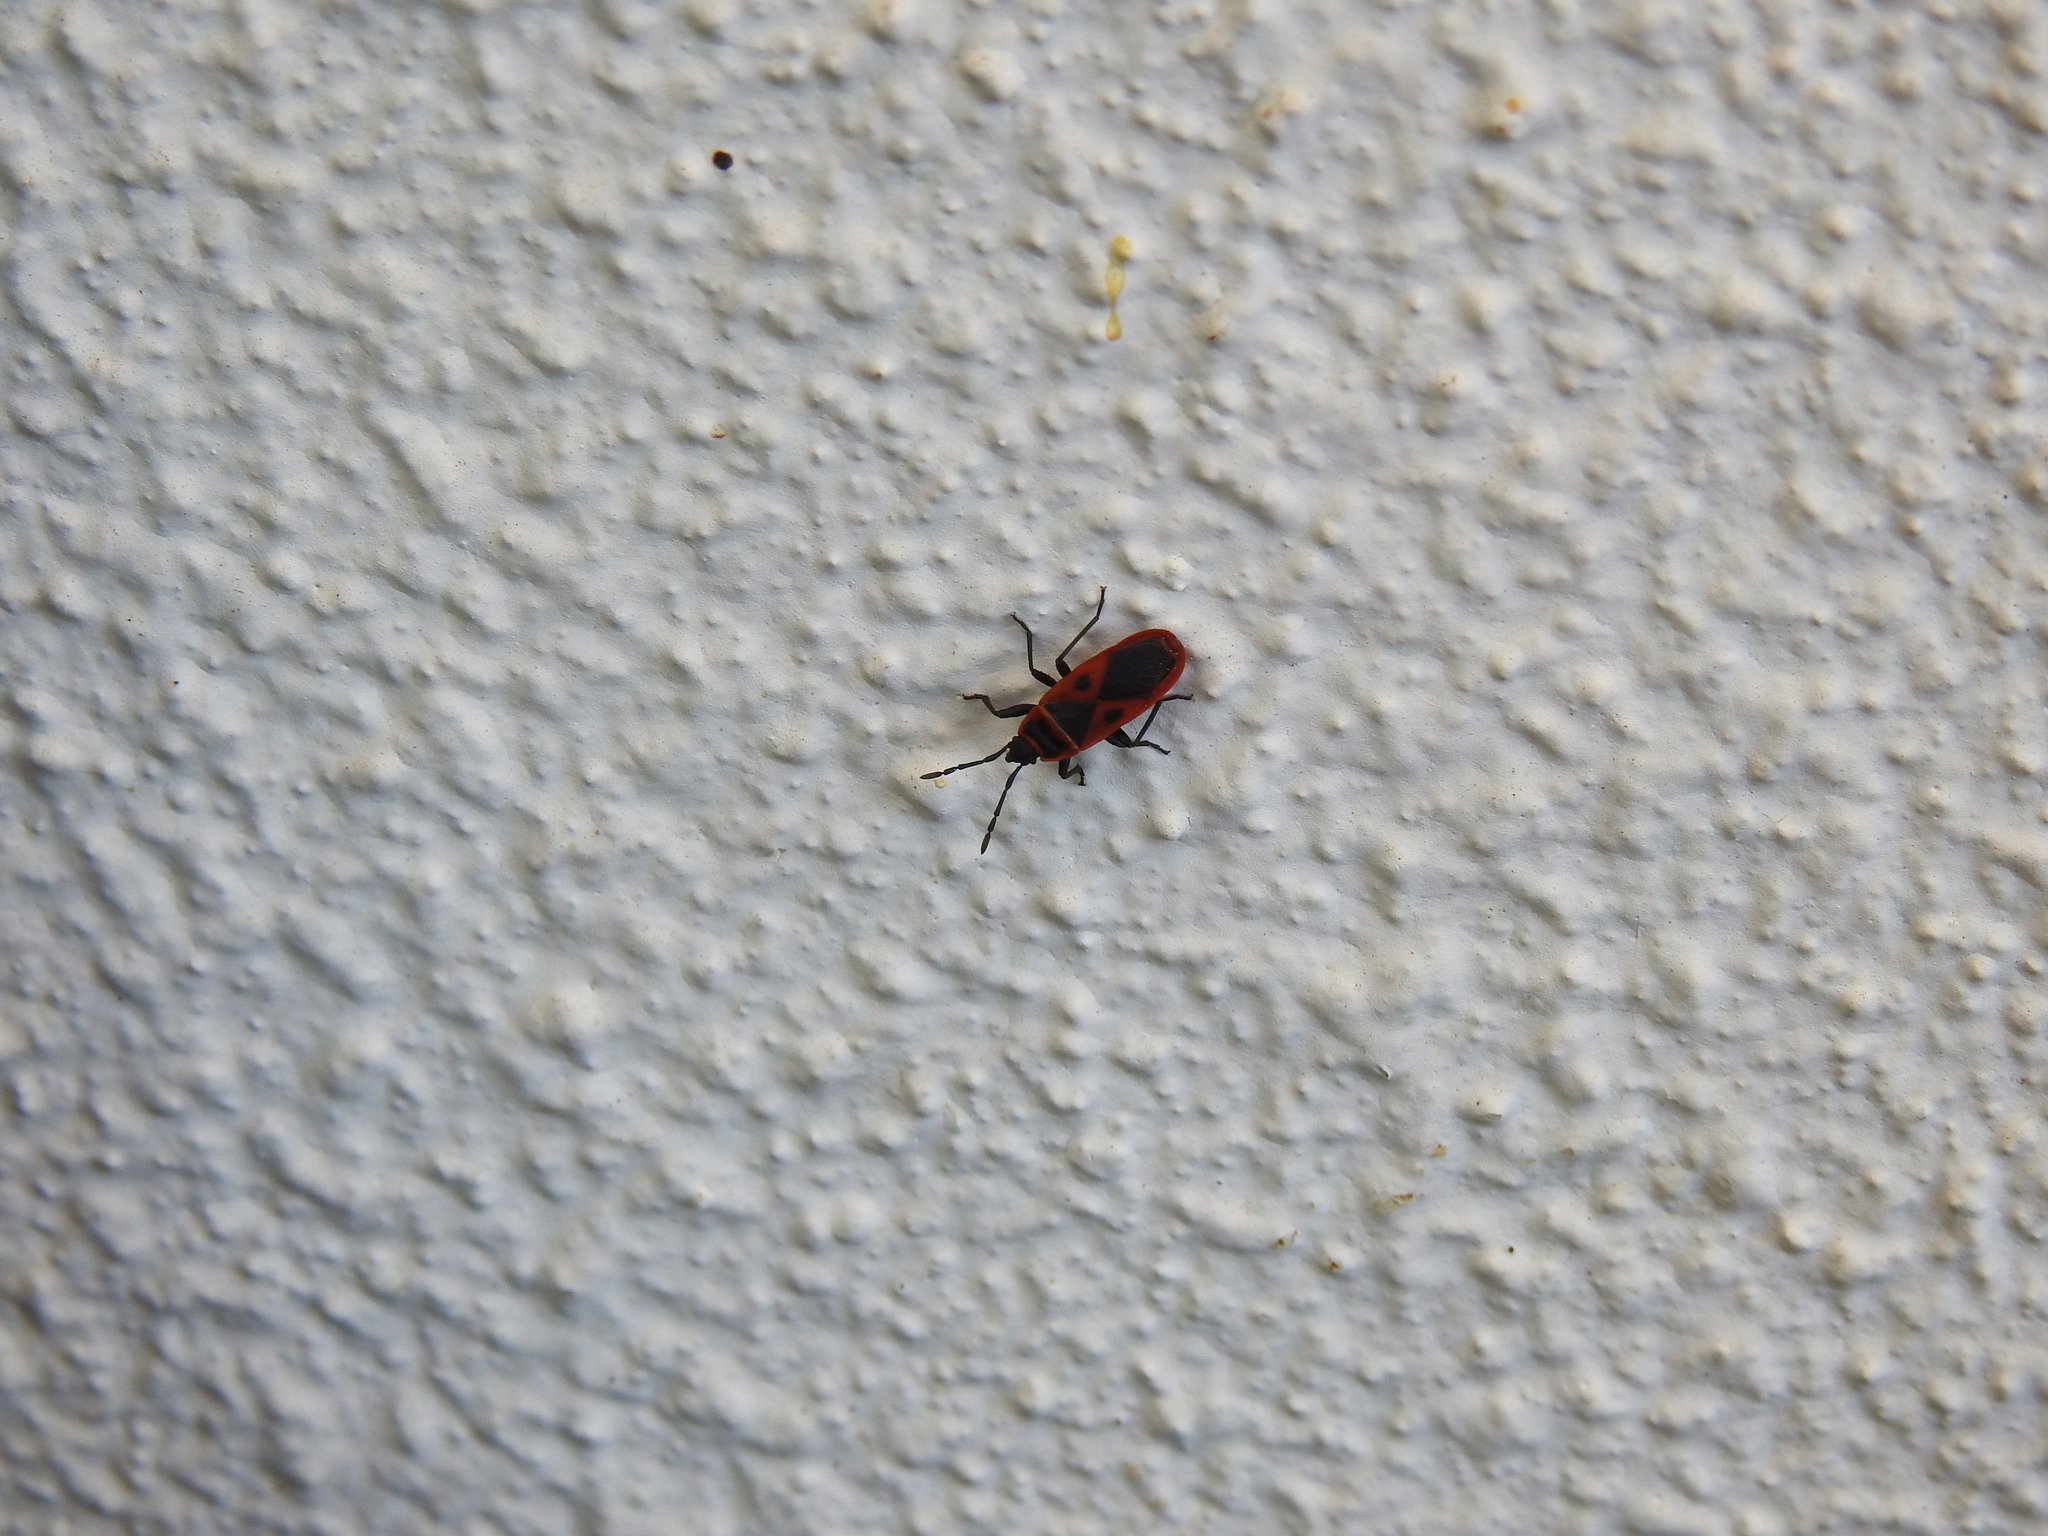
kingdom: Animalia
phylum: Arthropoda
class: Insecta
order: Hemiptera
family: Pyrrhocoridae
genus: Scantius
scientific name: Scantius aegyptius
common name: Red bug
